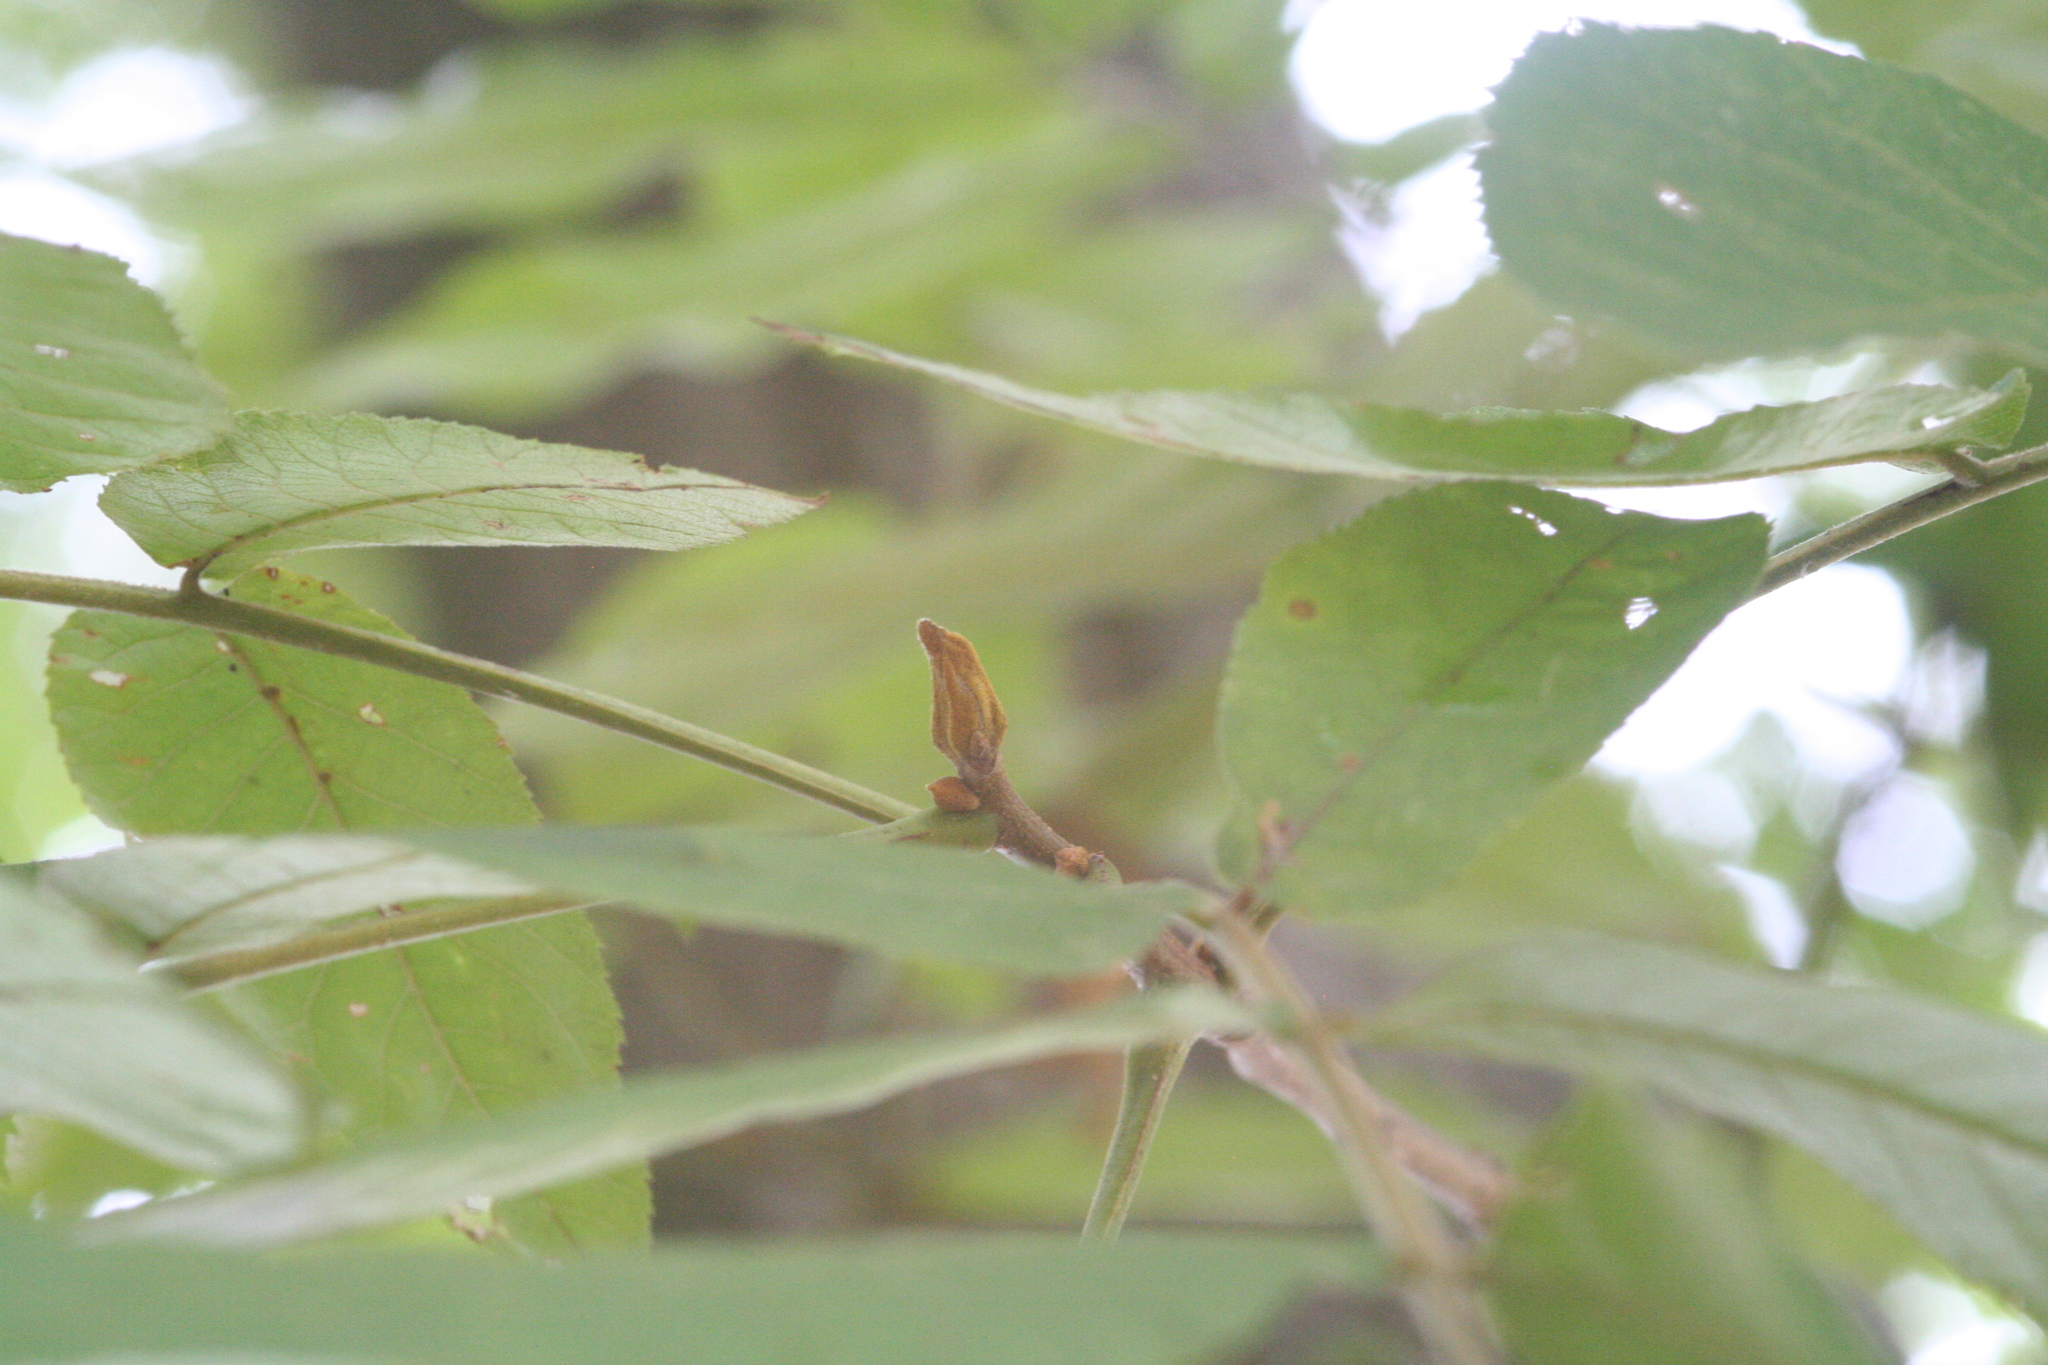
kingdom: Plantae
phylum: Tracheophyta
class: Magnoliopsida
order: Fagales
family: Juglandaceae
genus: Carya
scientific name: Carya cordiformis
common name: Bitternut hickory
